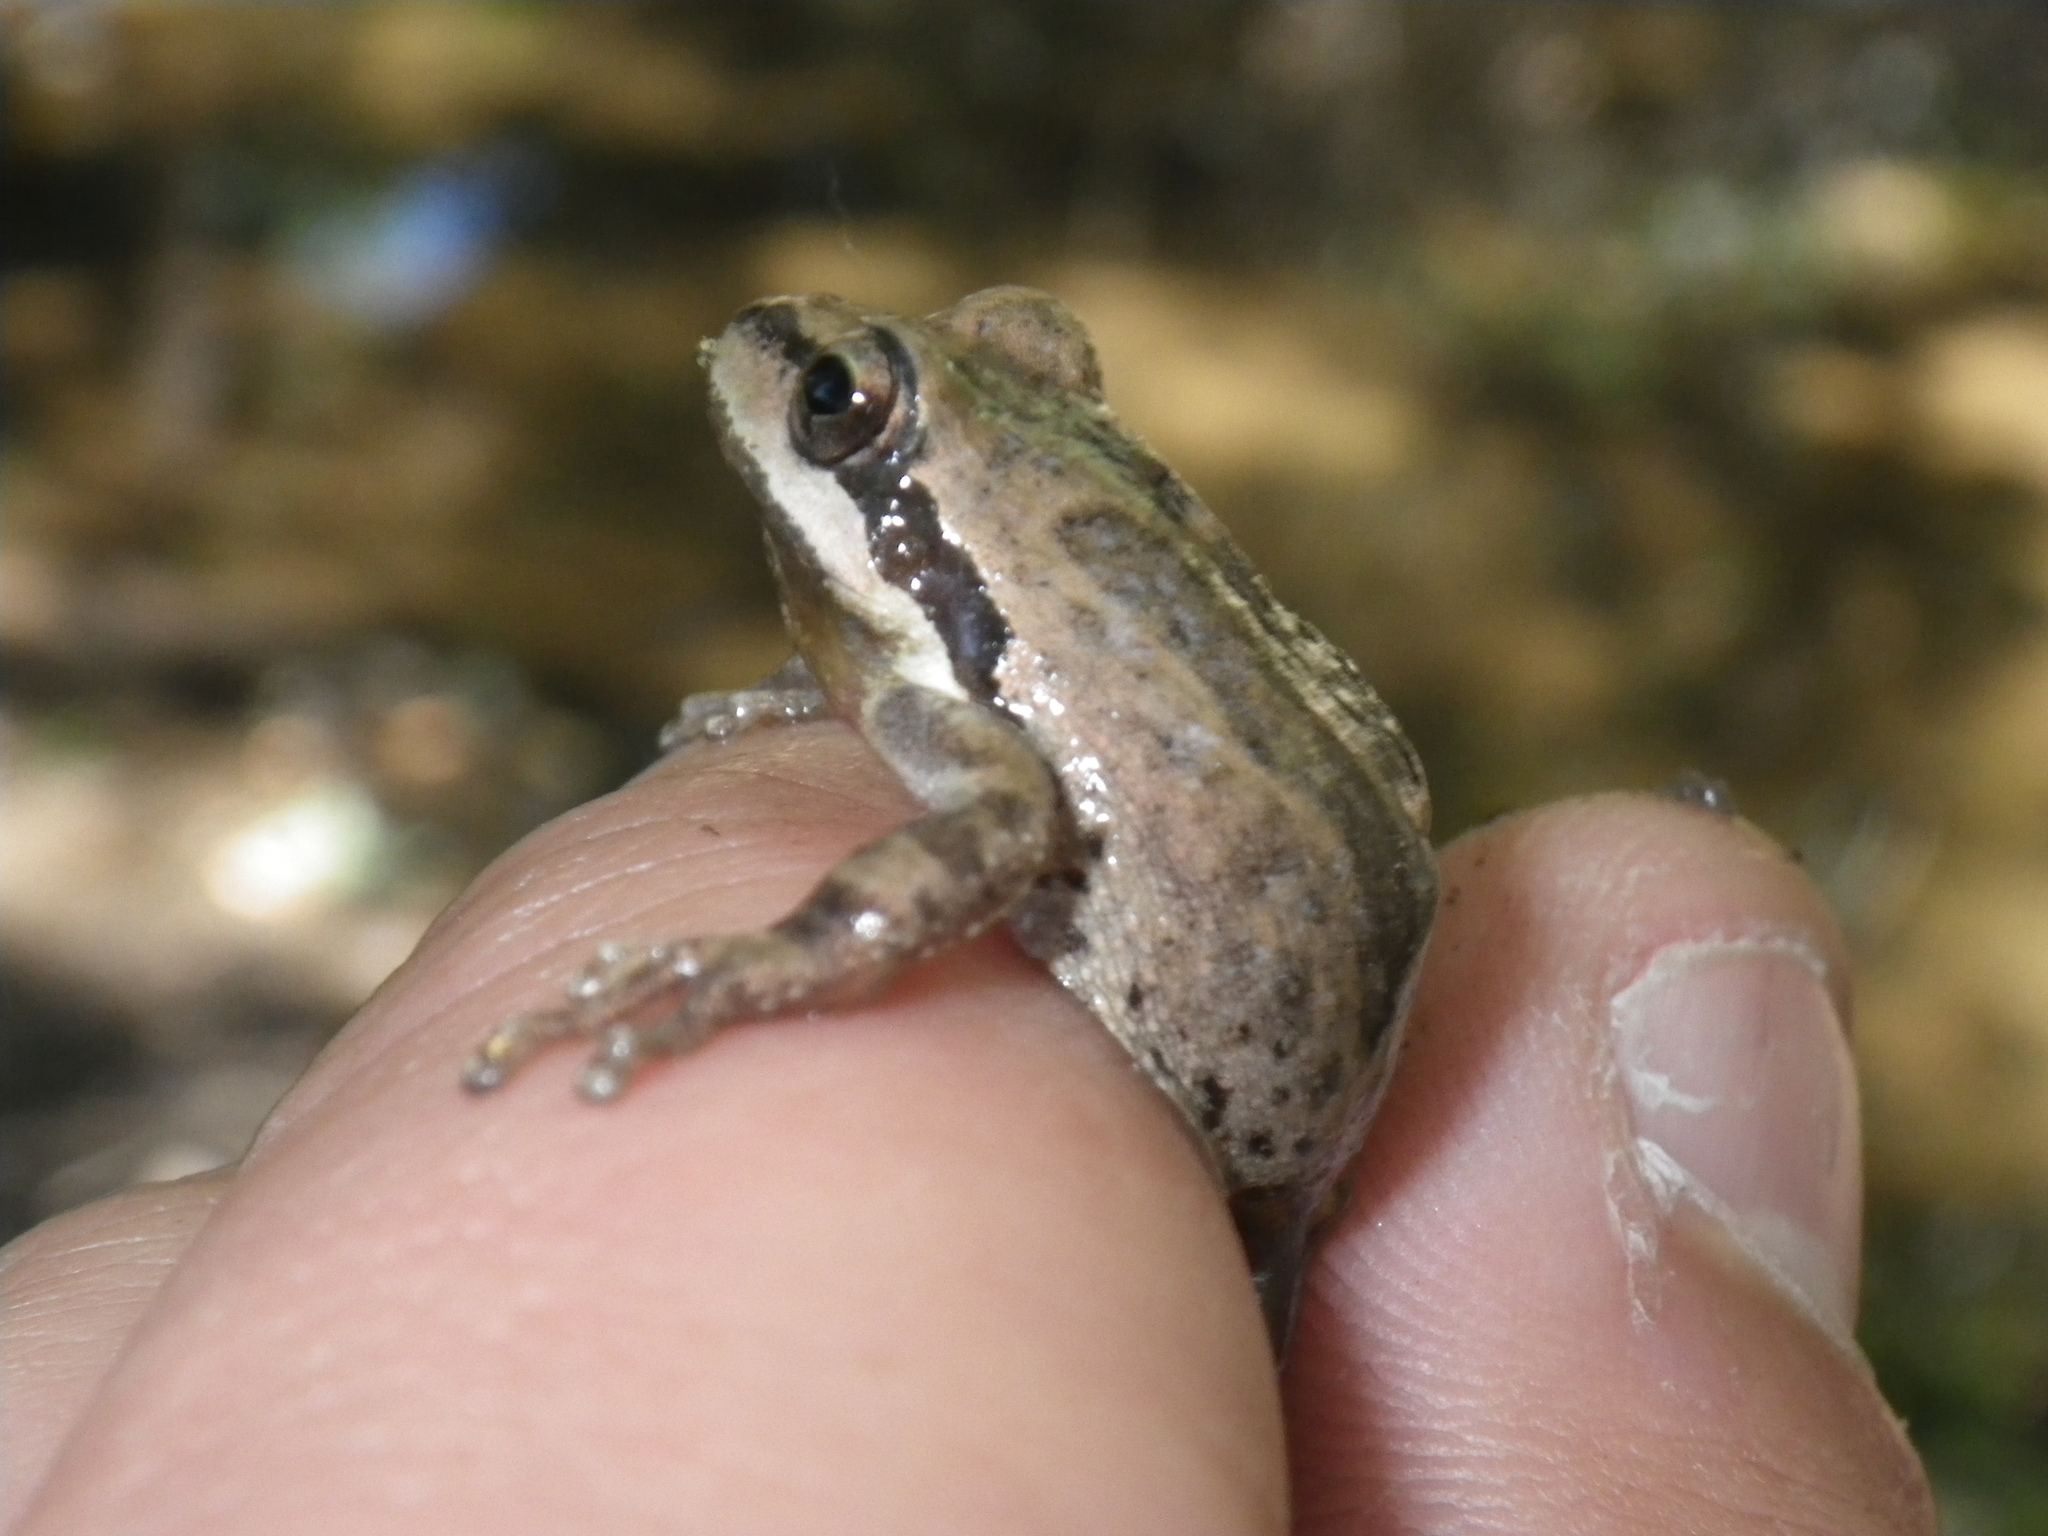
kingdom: Animalia
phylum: Chordata
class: Amphibia
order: Anura
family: Hylidae
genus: Pseudacris
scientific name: Pseudacris regilla
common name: Pacific chorus frog
